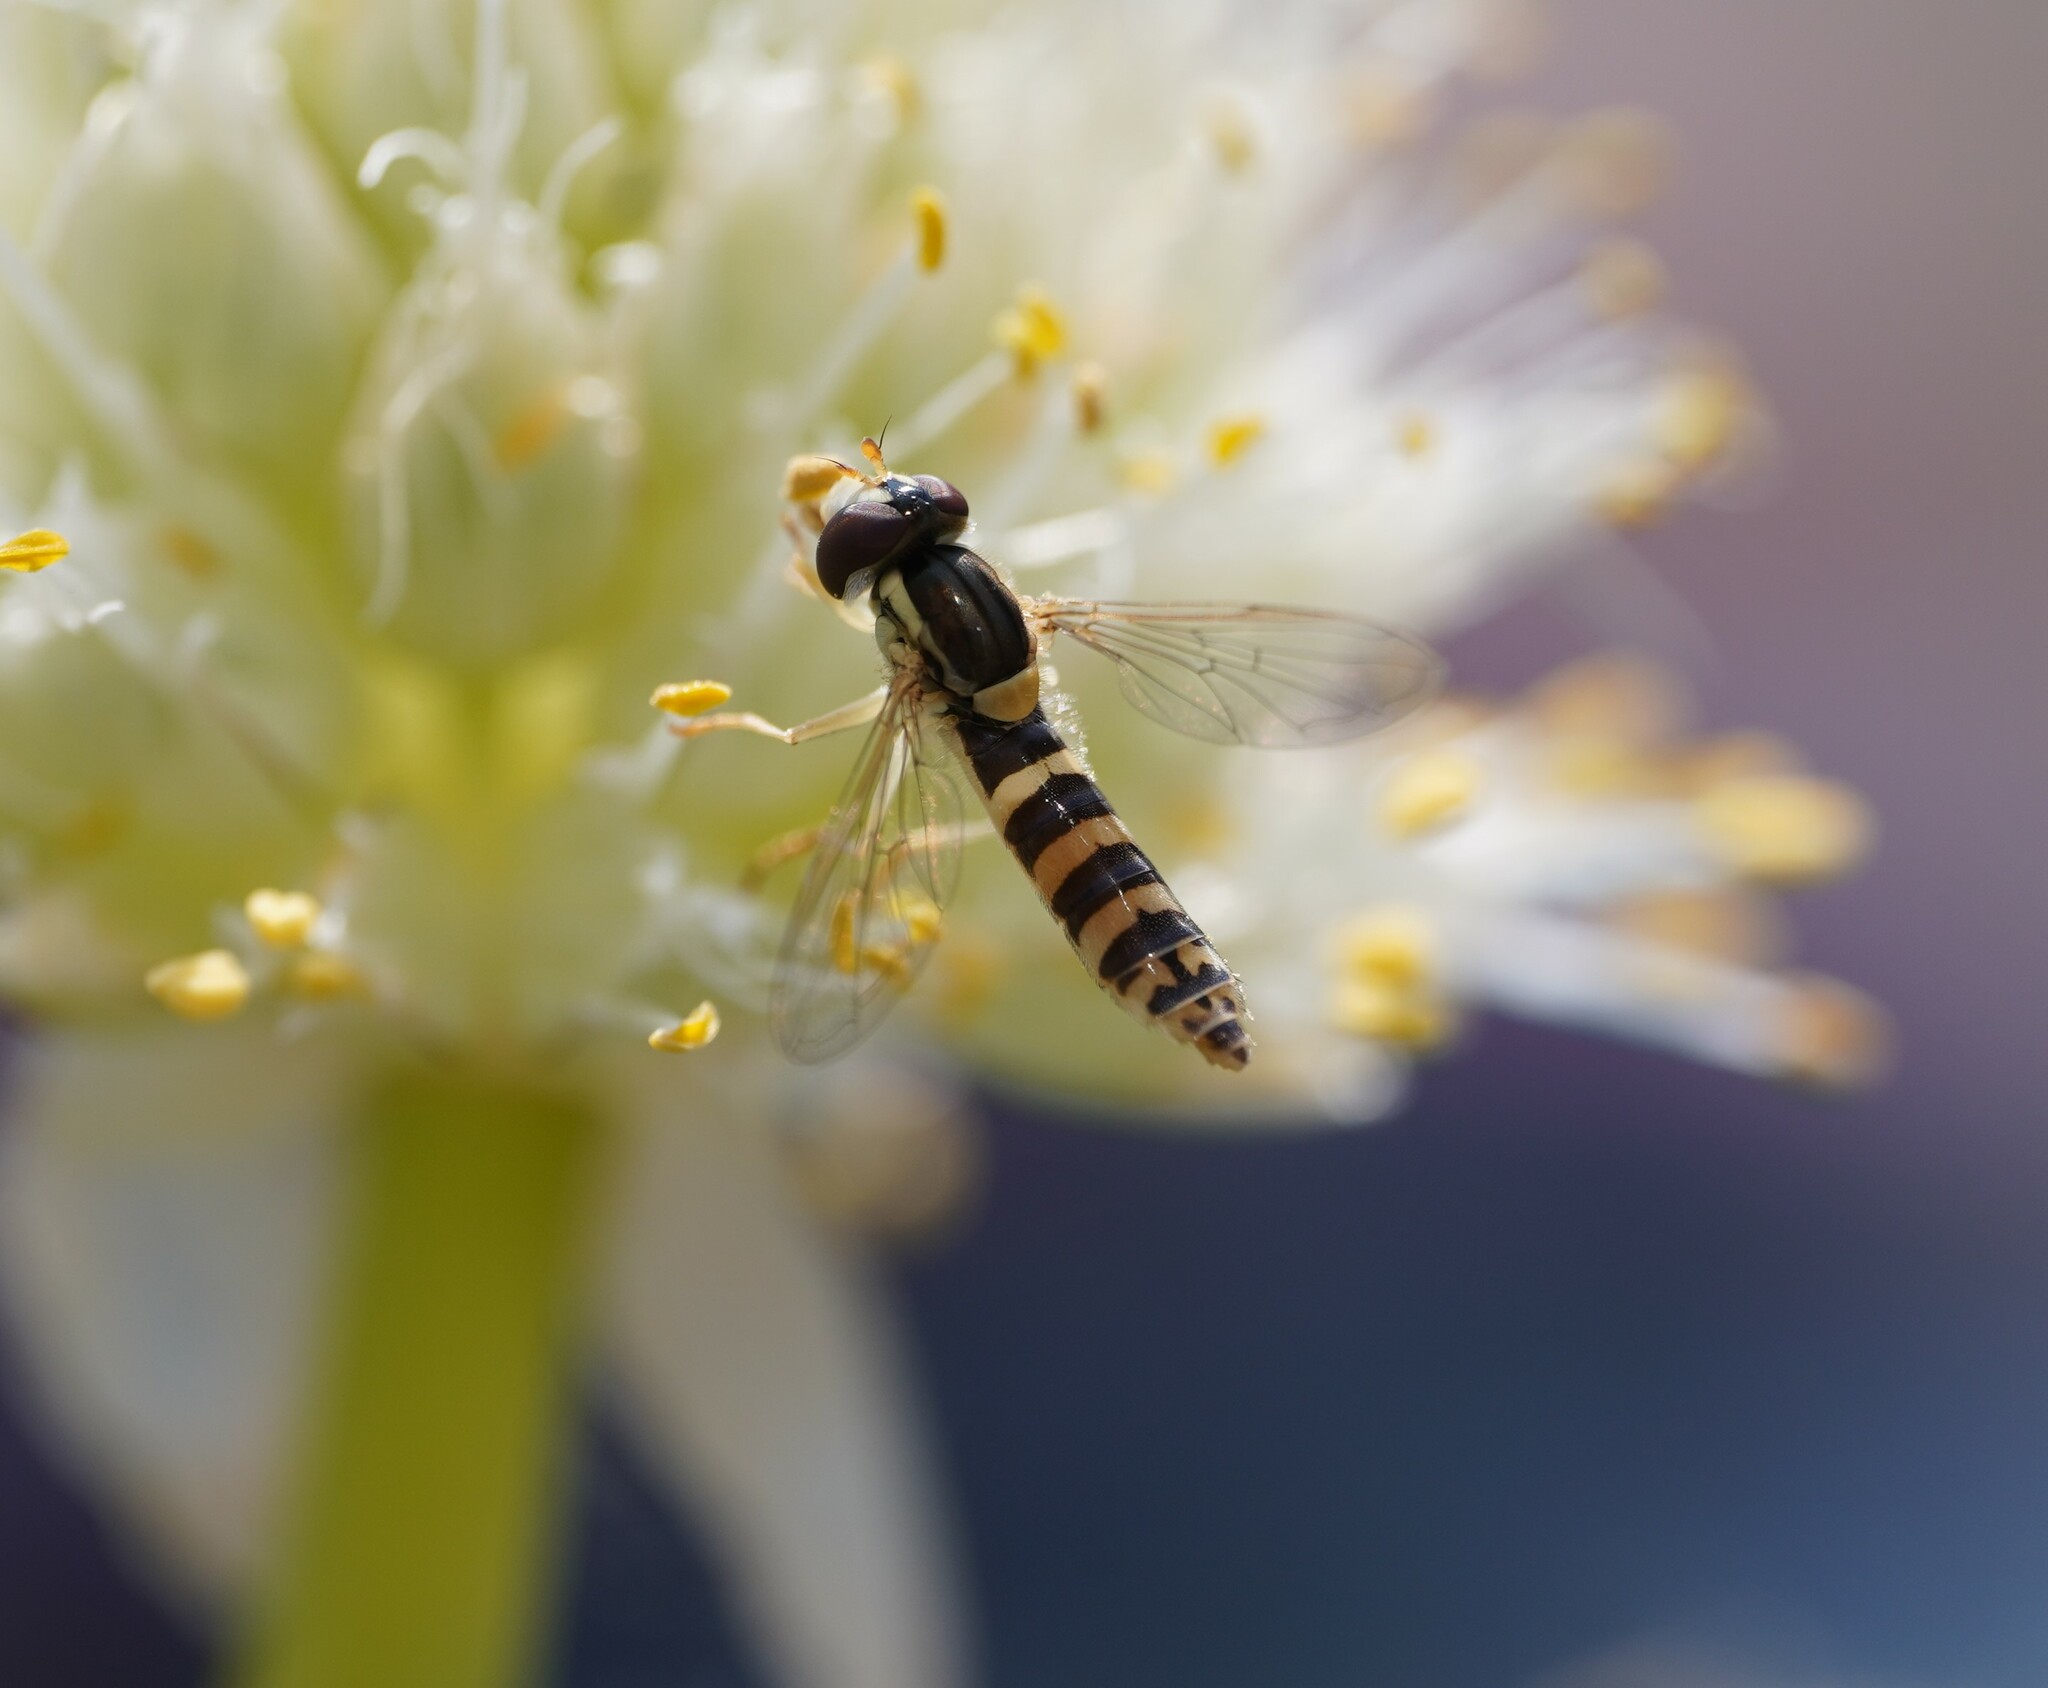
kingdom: Animalia
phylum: Arthropoda
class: Insecta
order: Diptera
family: Syrphidae
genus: Sphaerophoria
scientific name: Sphaerophoria scripta
